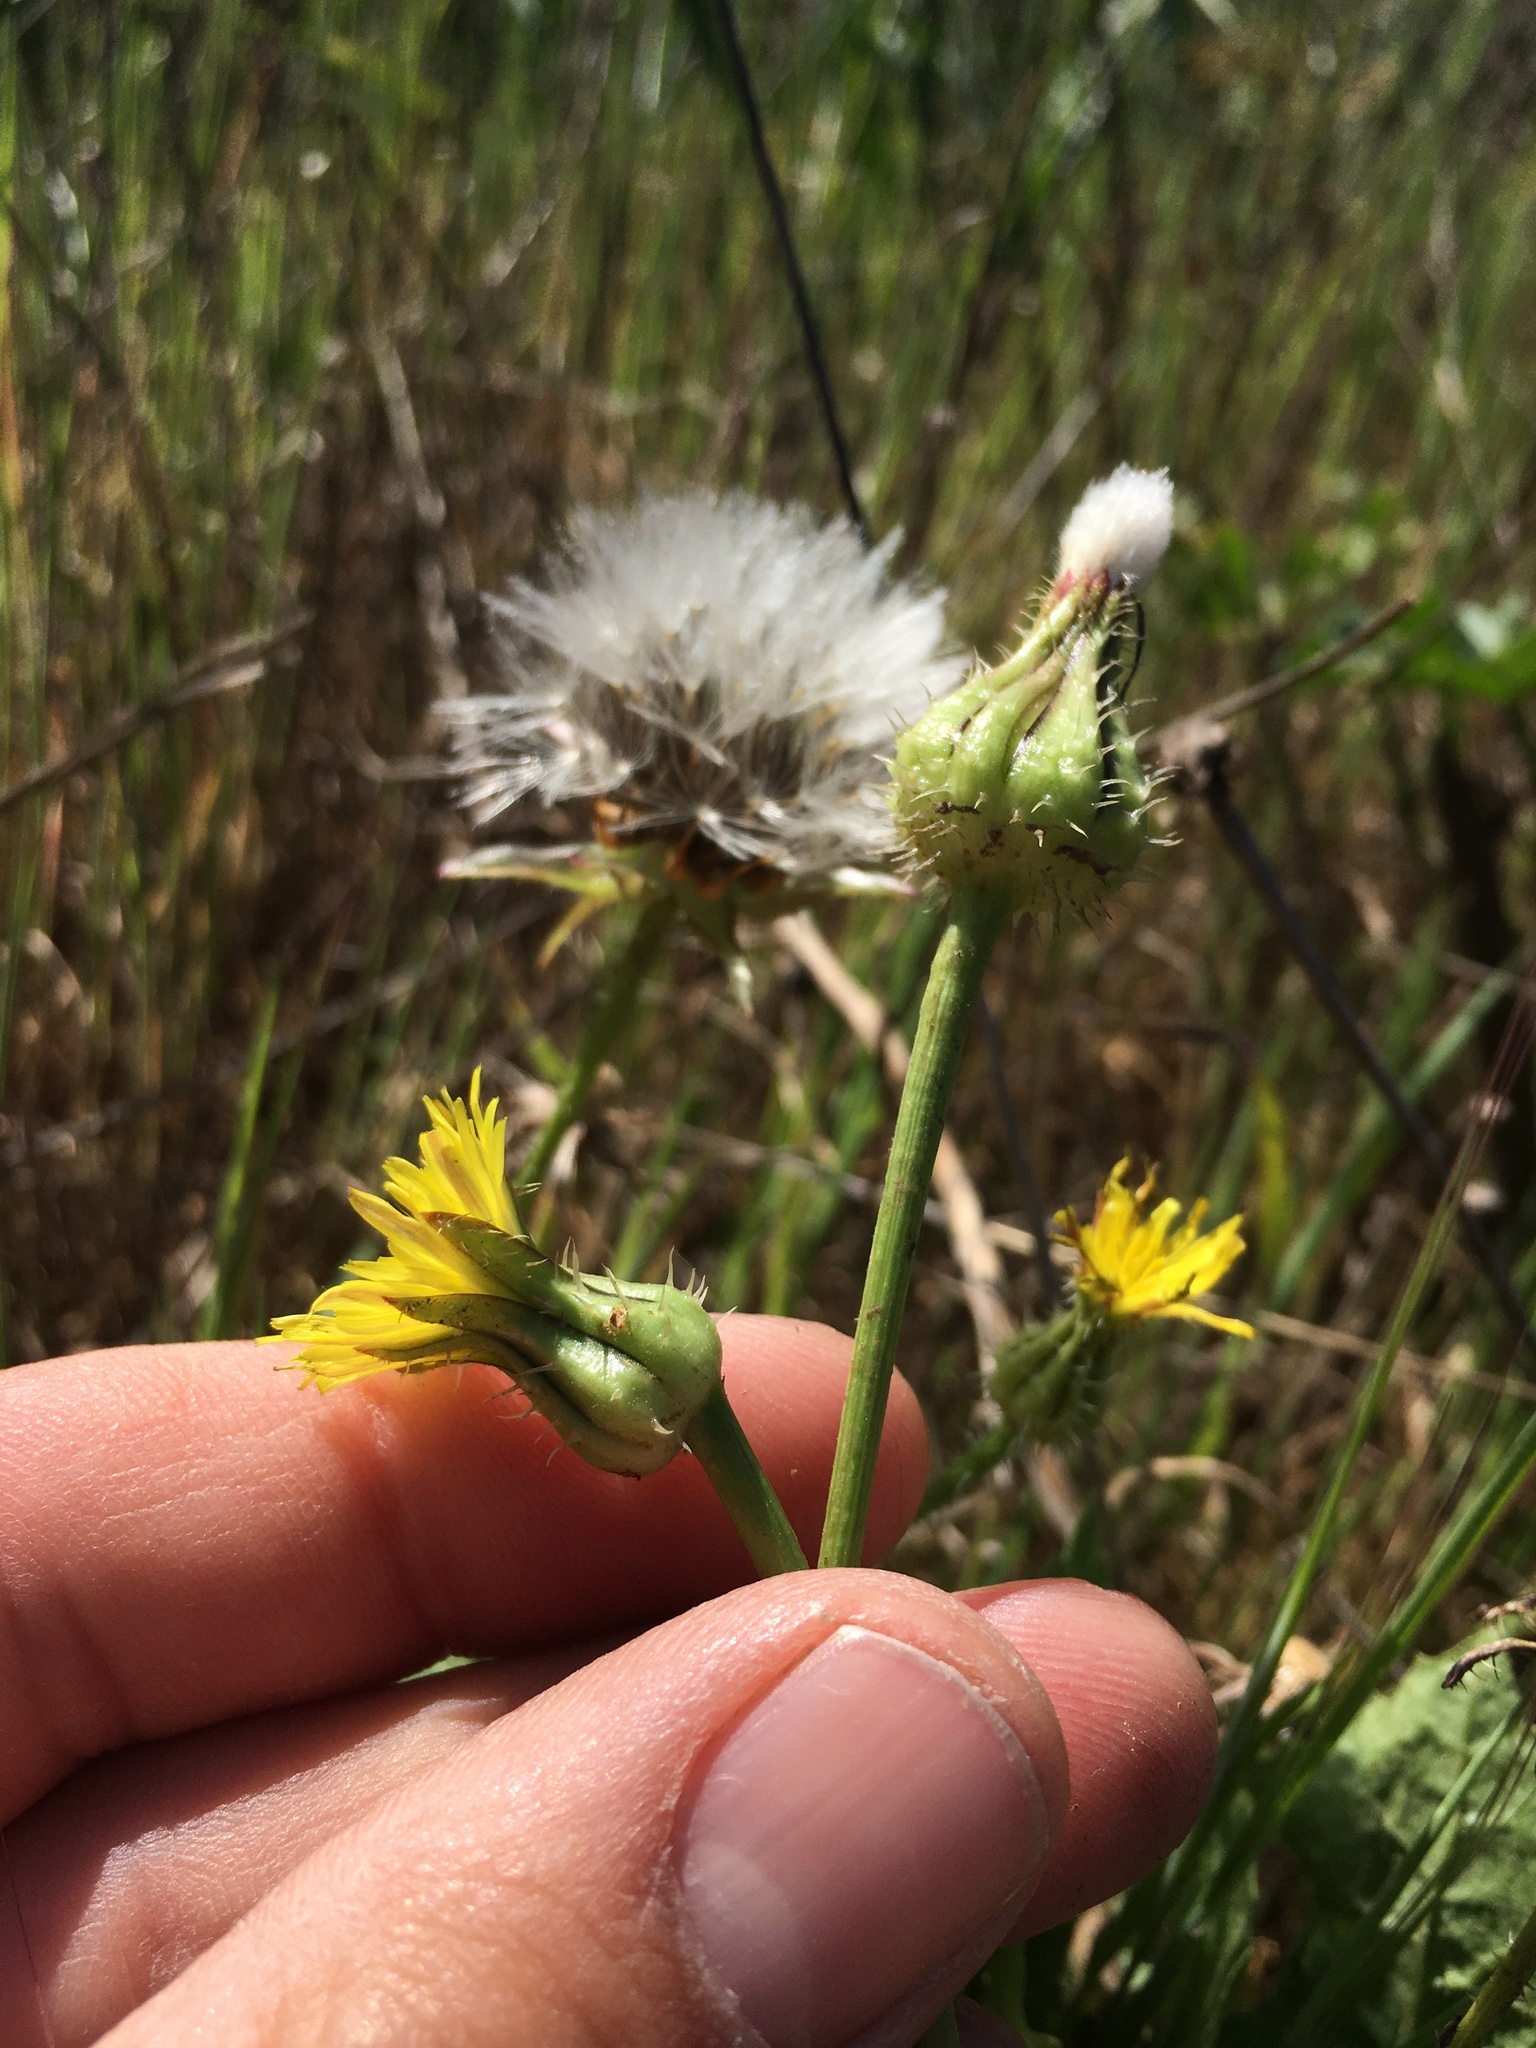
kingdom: Plantae
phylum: Tracheophyta
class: Magnoliopsida
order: Asterales
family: Asteraceae
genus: Urospermum
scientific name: Urospermum picroides
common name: False hawkbit
